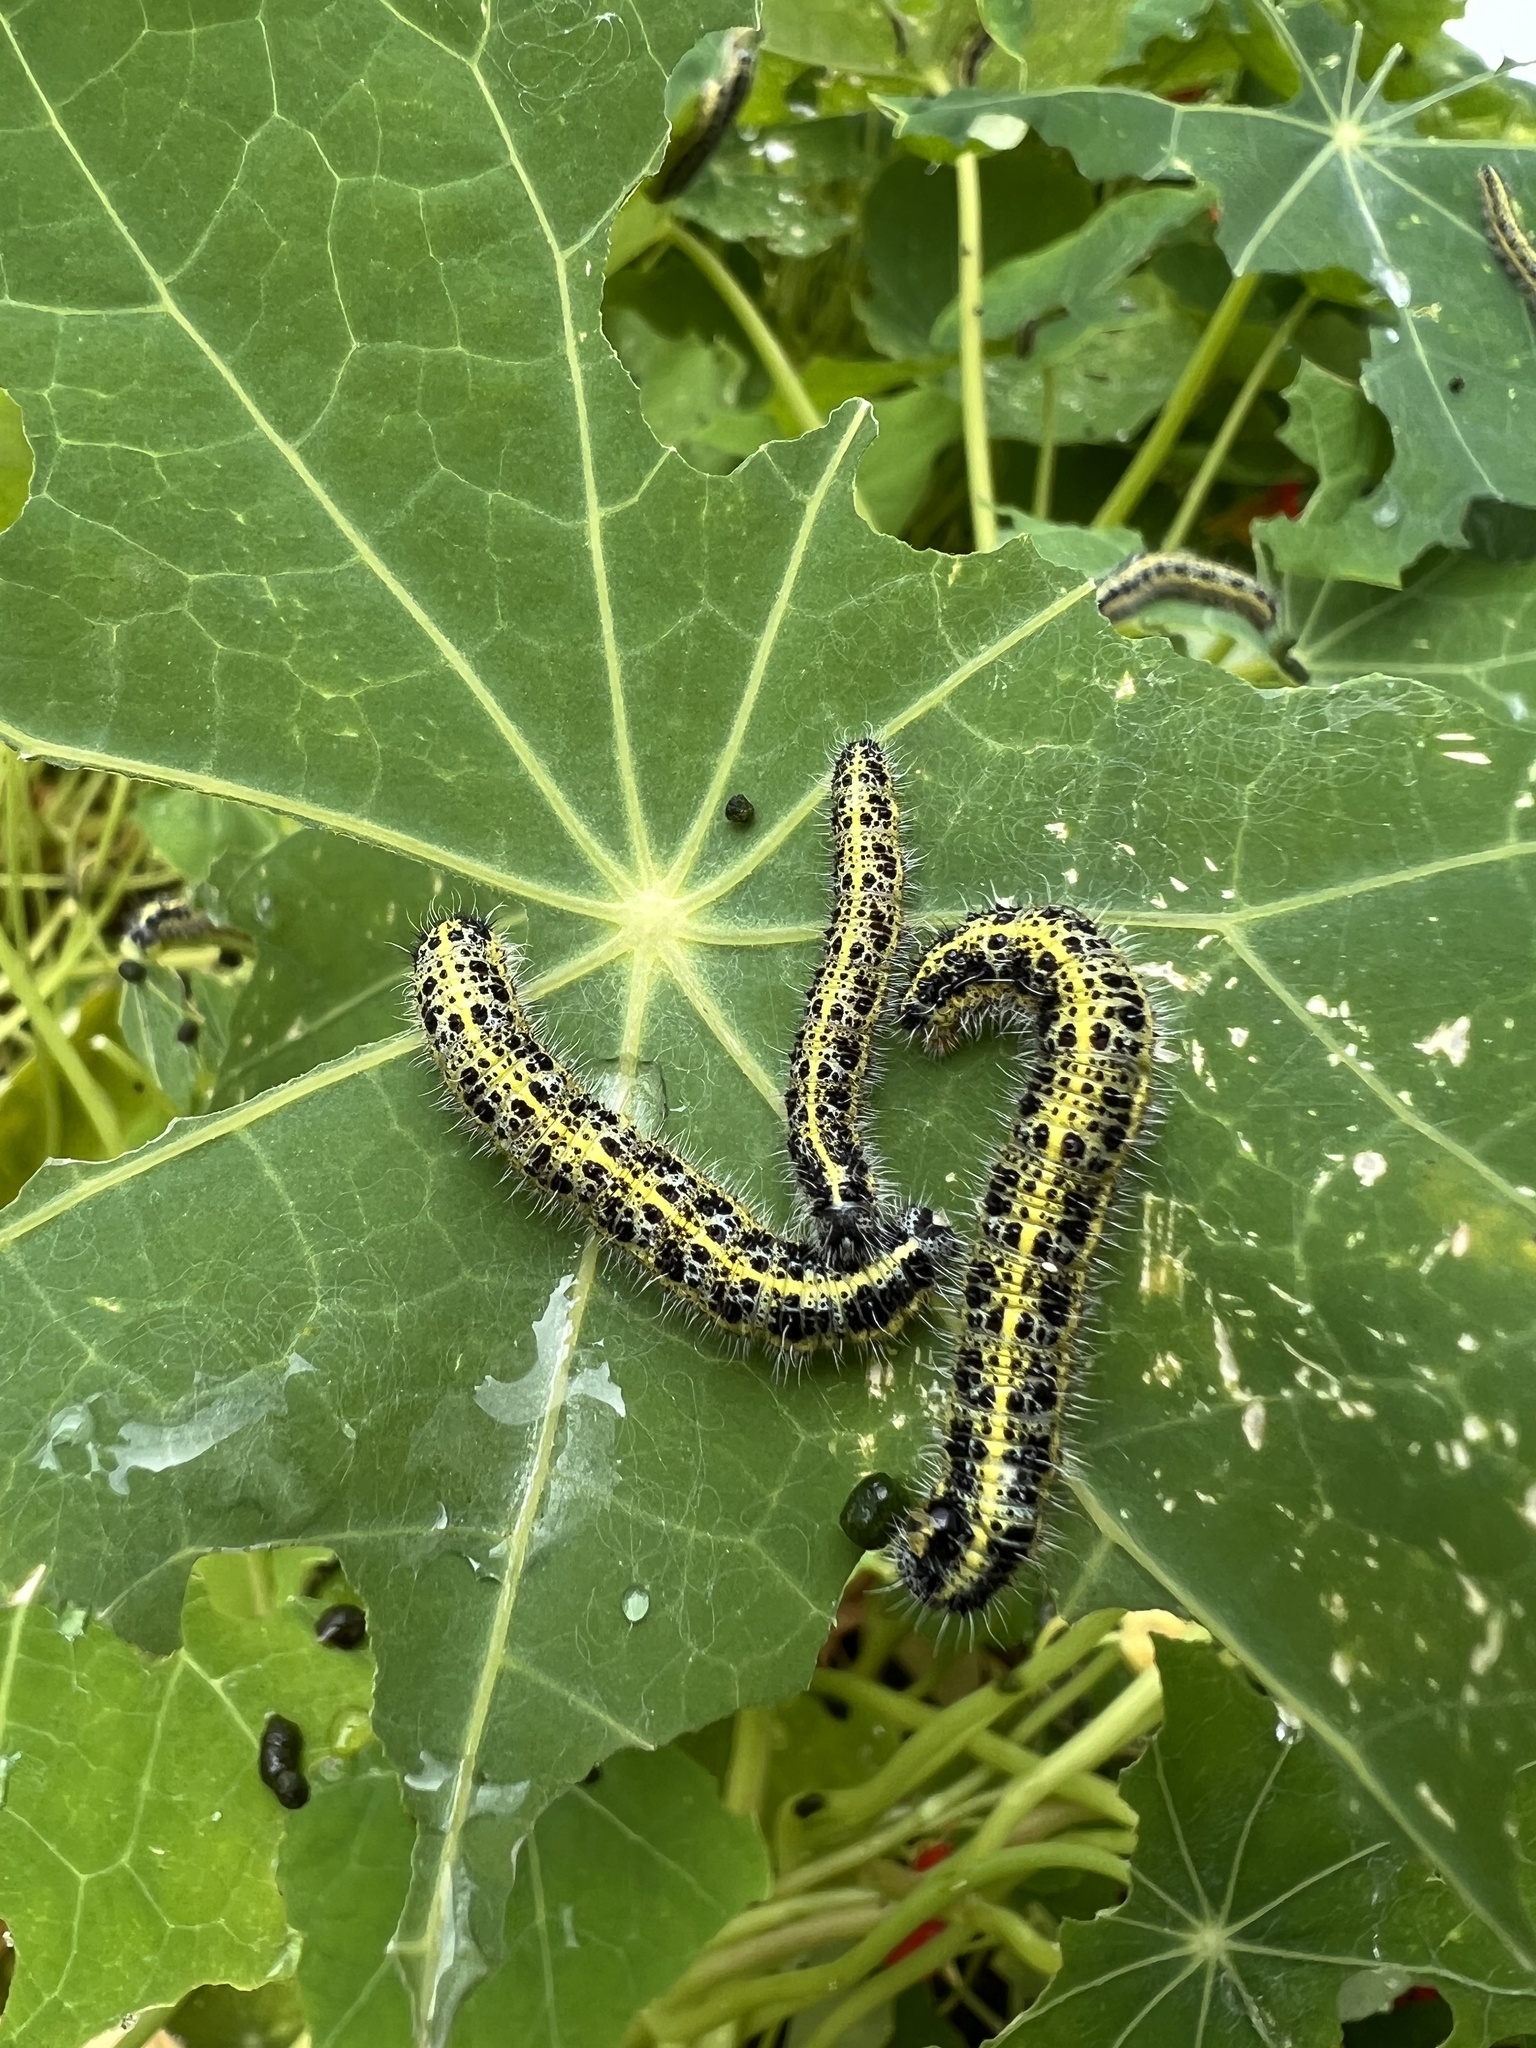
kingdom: Animalia
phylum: Arthropoda
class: Insecta
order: Lepidoptera
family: Pieridae
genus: Pieris
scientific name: Pieris brassicae
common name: Large white
